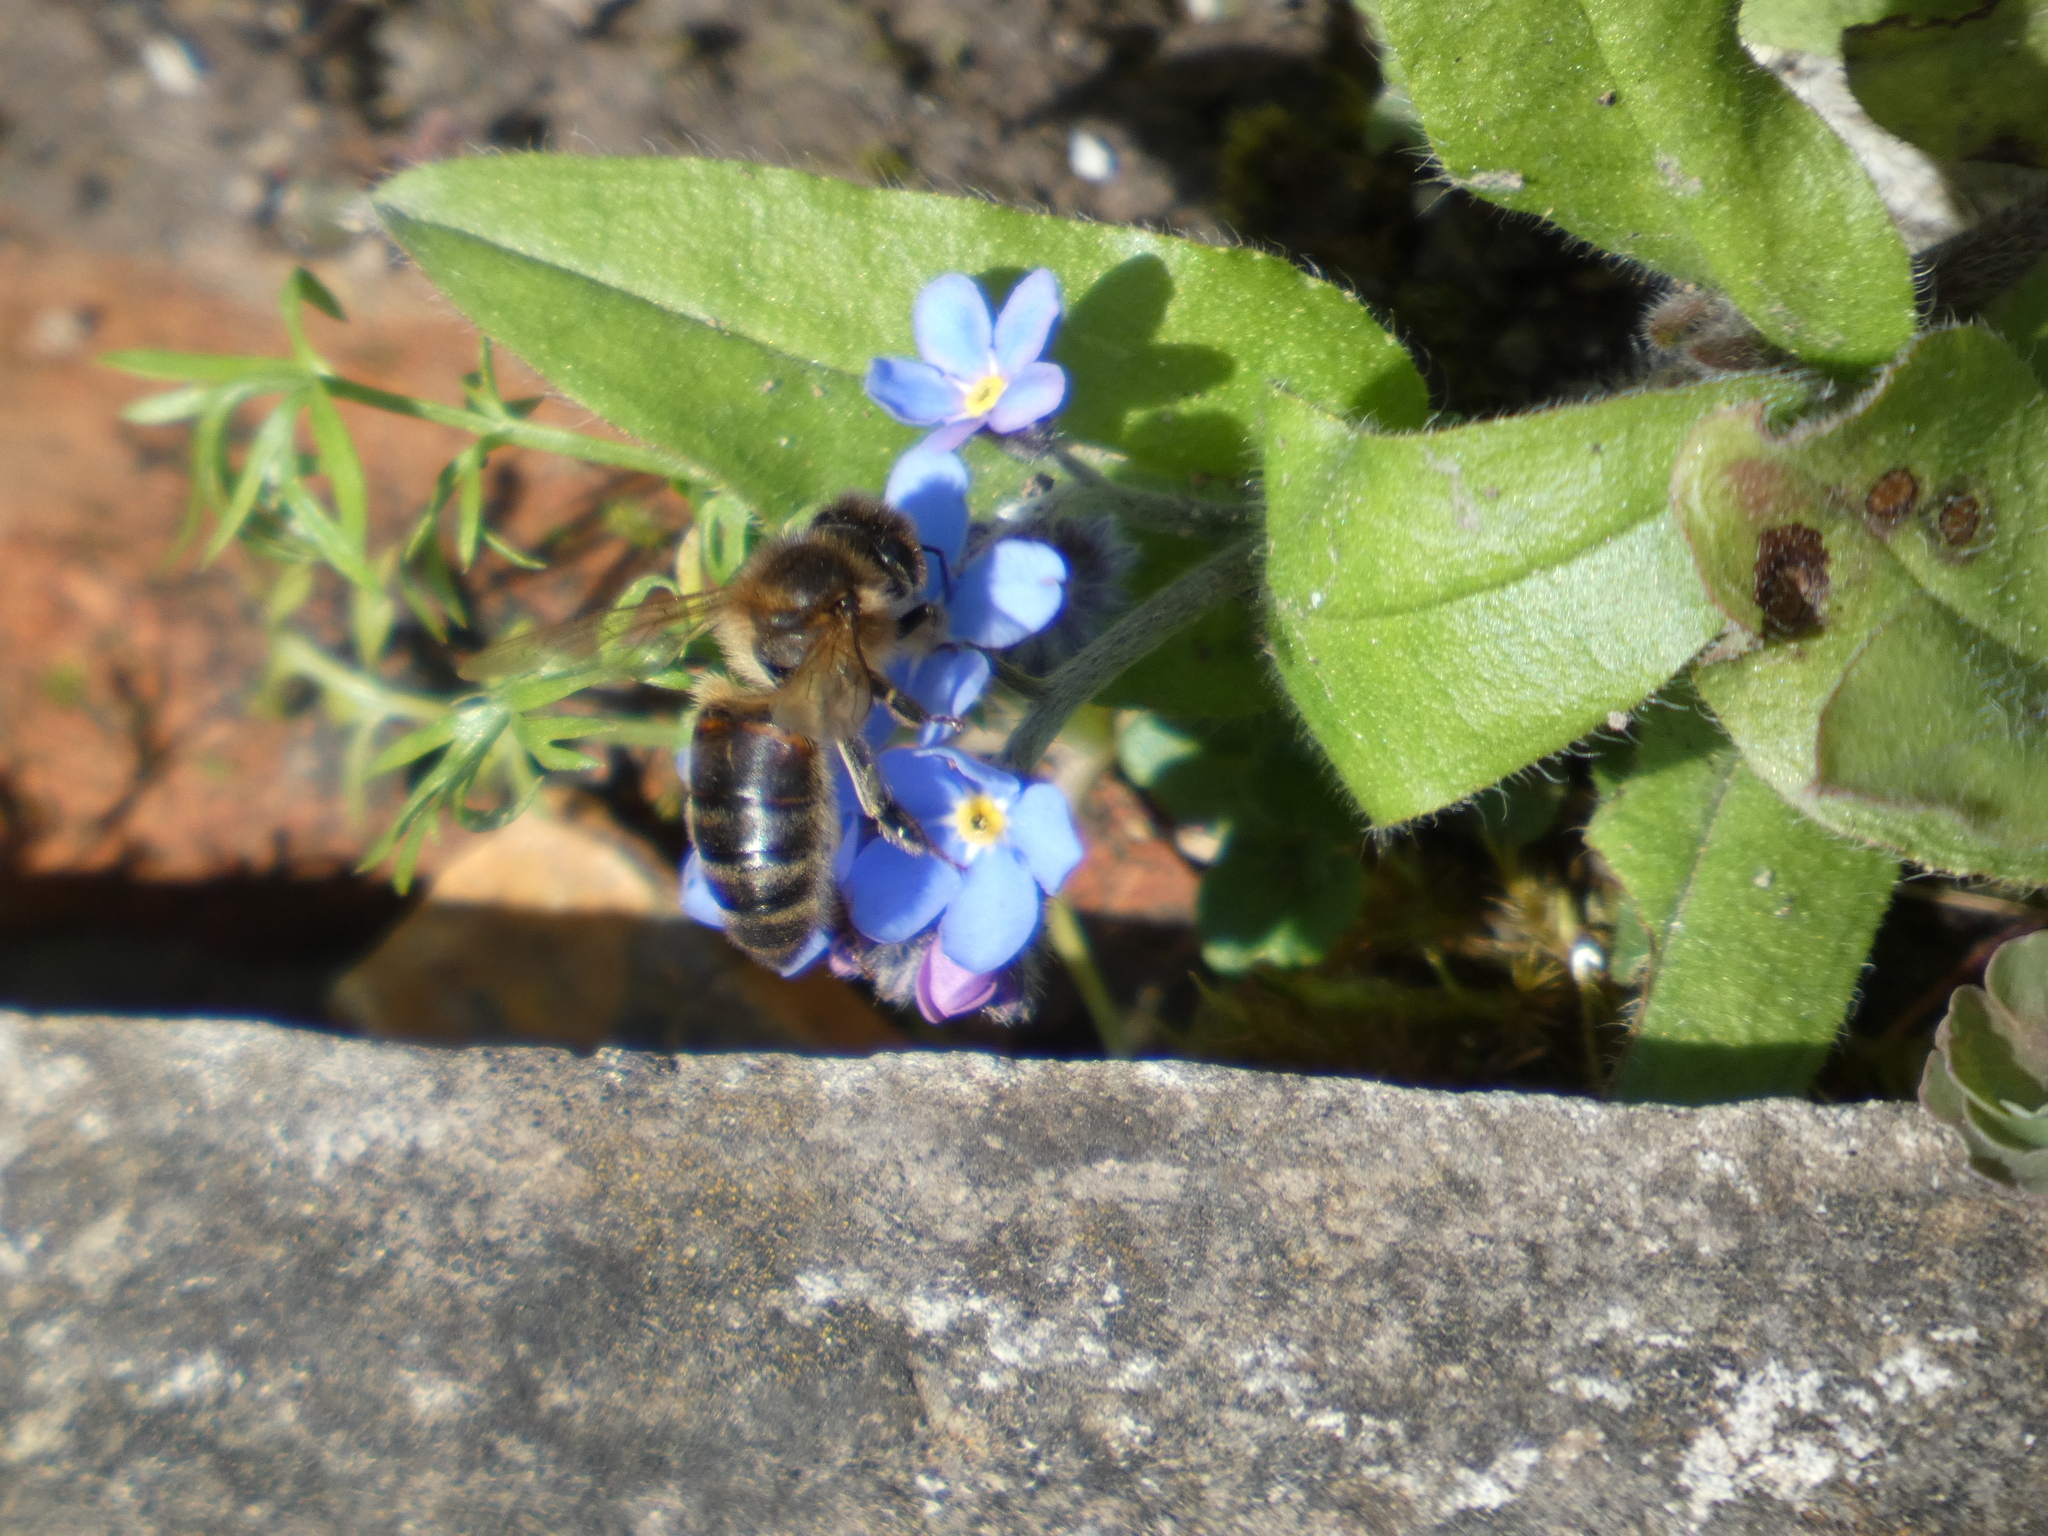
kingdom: Animalia
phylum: Arthropoda
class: Insecta
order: Hymenoptera
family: Apidae
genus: Apis
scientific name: Apis mellifera
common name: Honey bee
